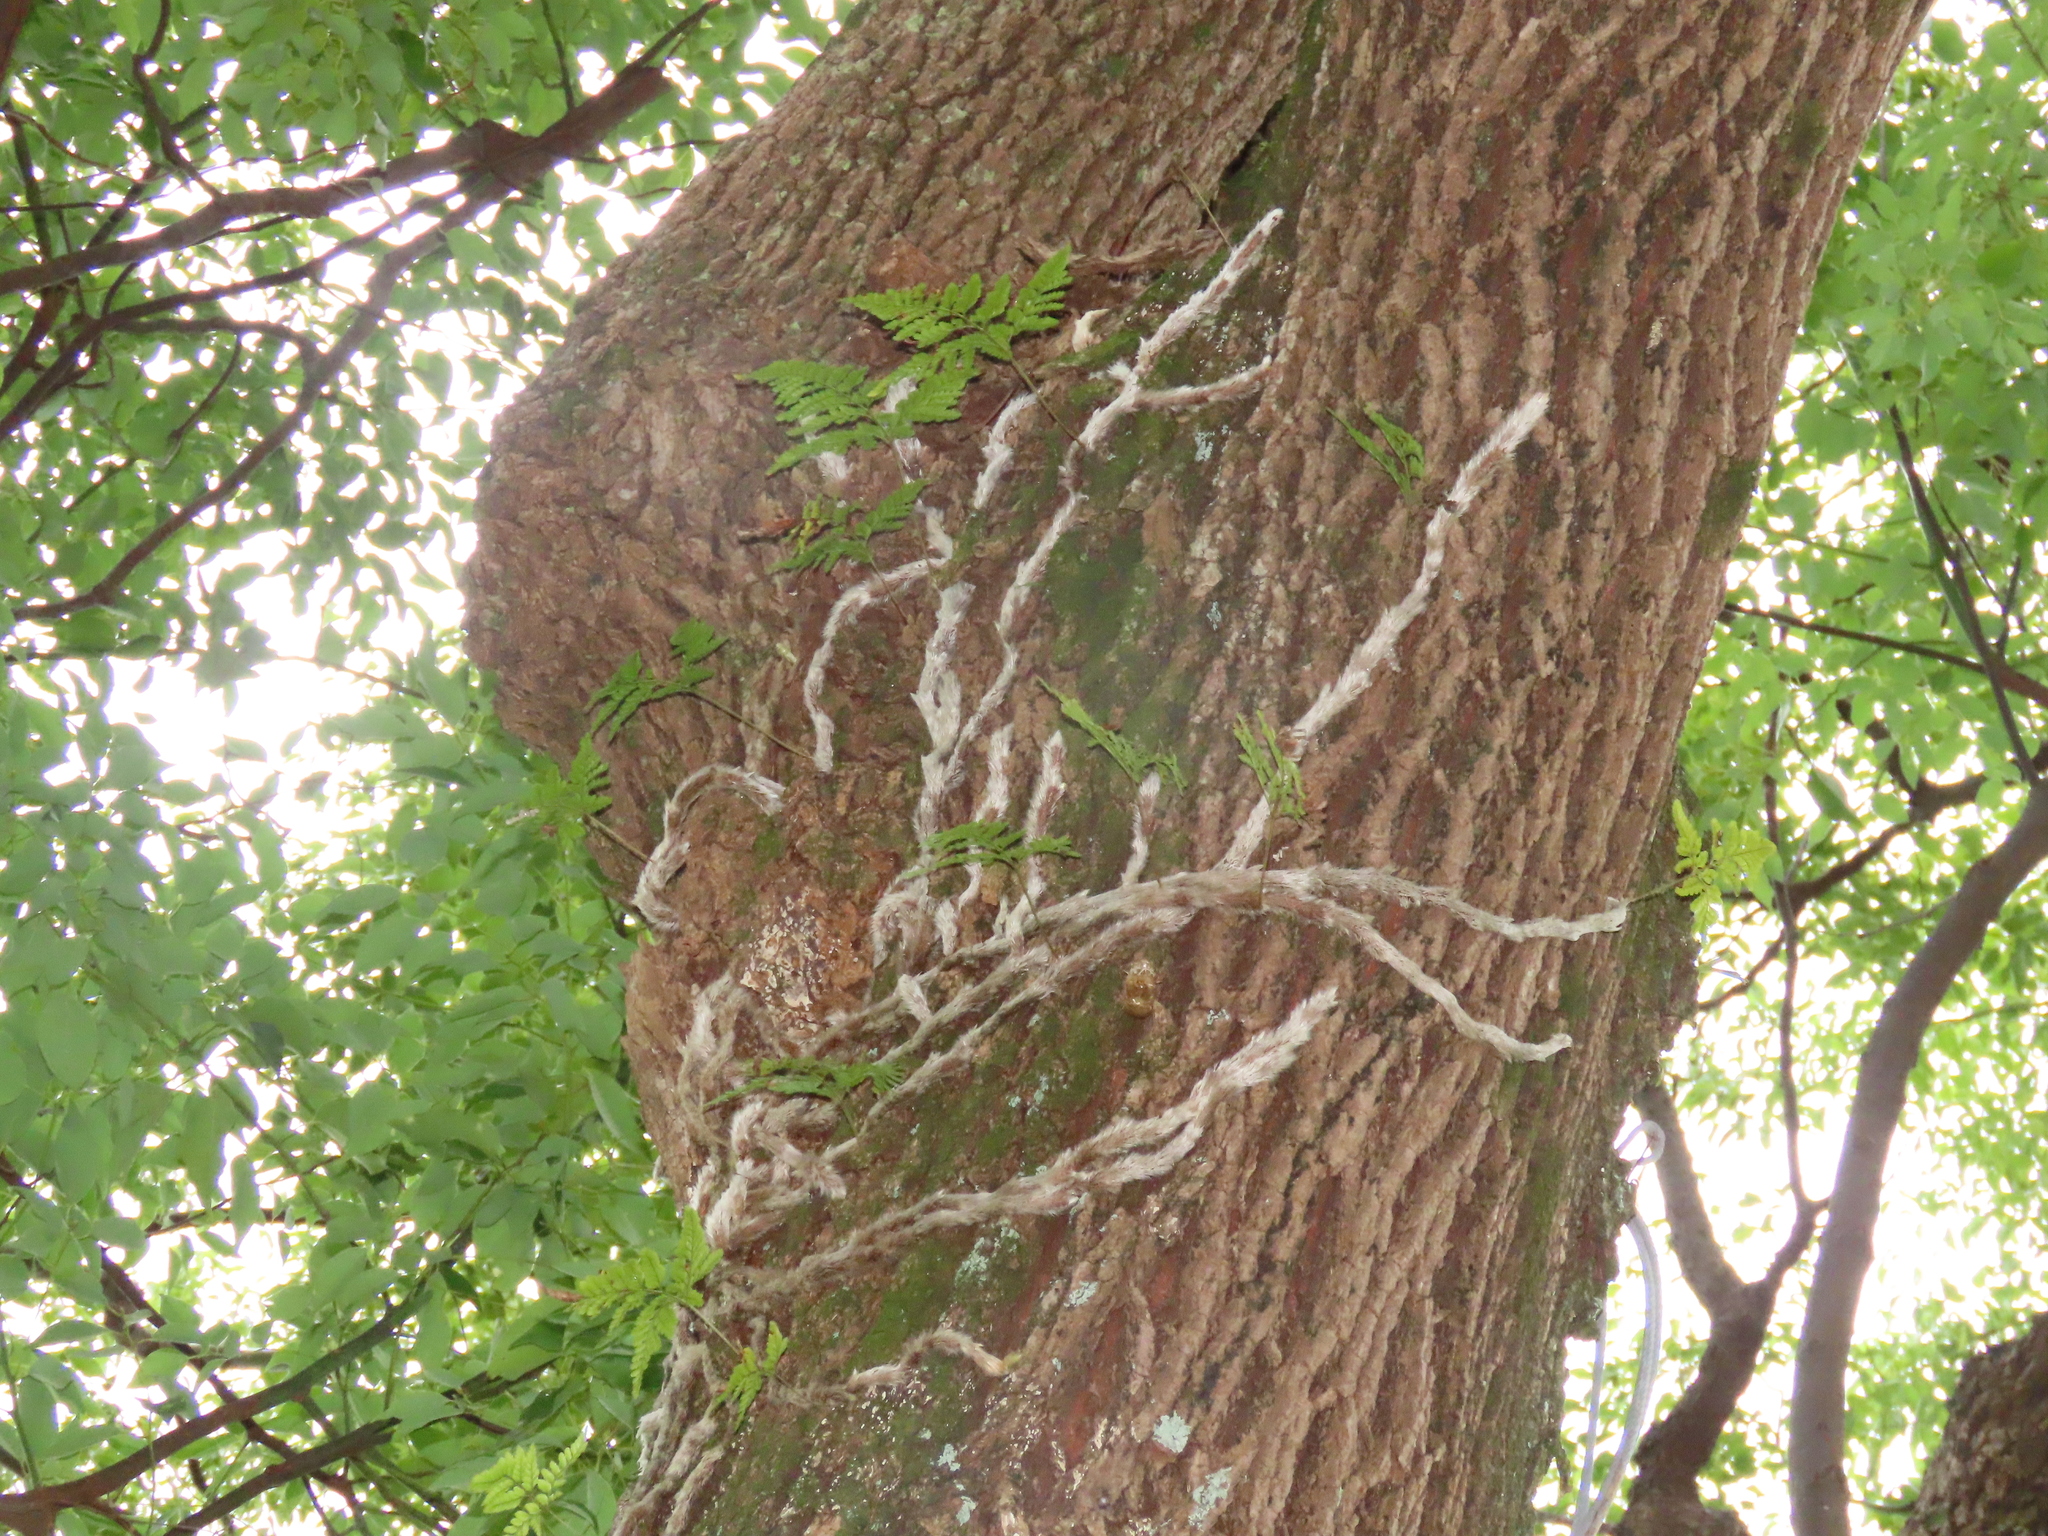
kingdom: Plantae
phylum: Tracheophyta
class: Polypodiopsida
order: Polypodiales
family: Davalliaceae
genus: Davallia
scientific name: Davallia griffithiana
